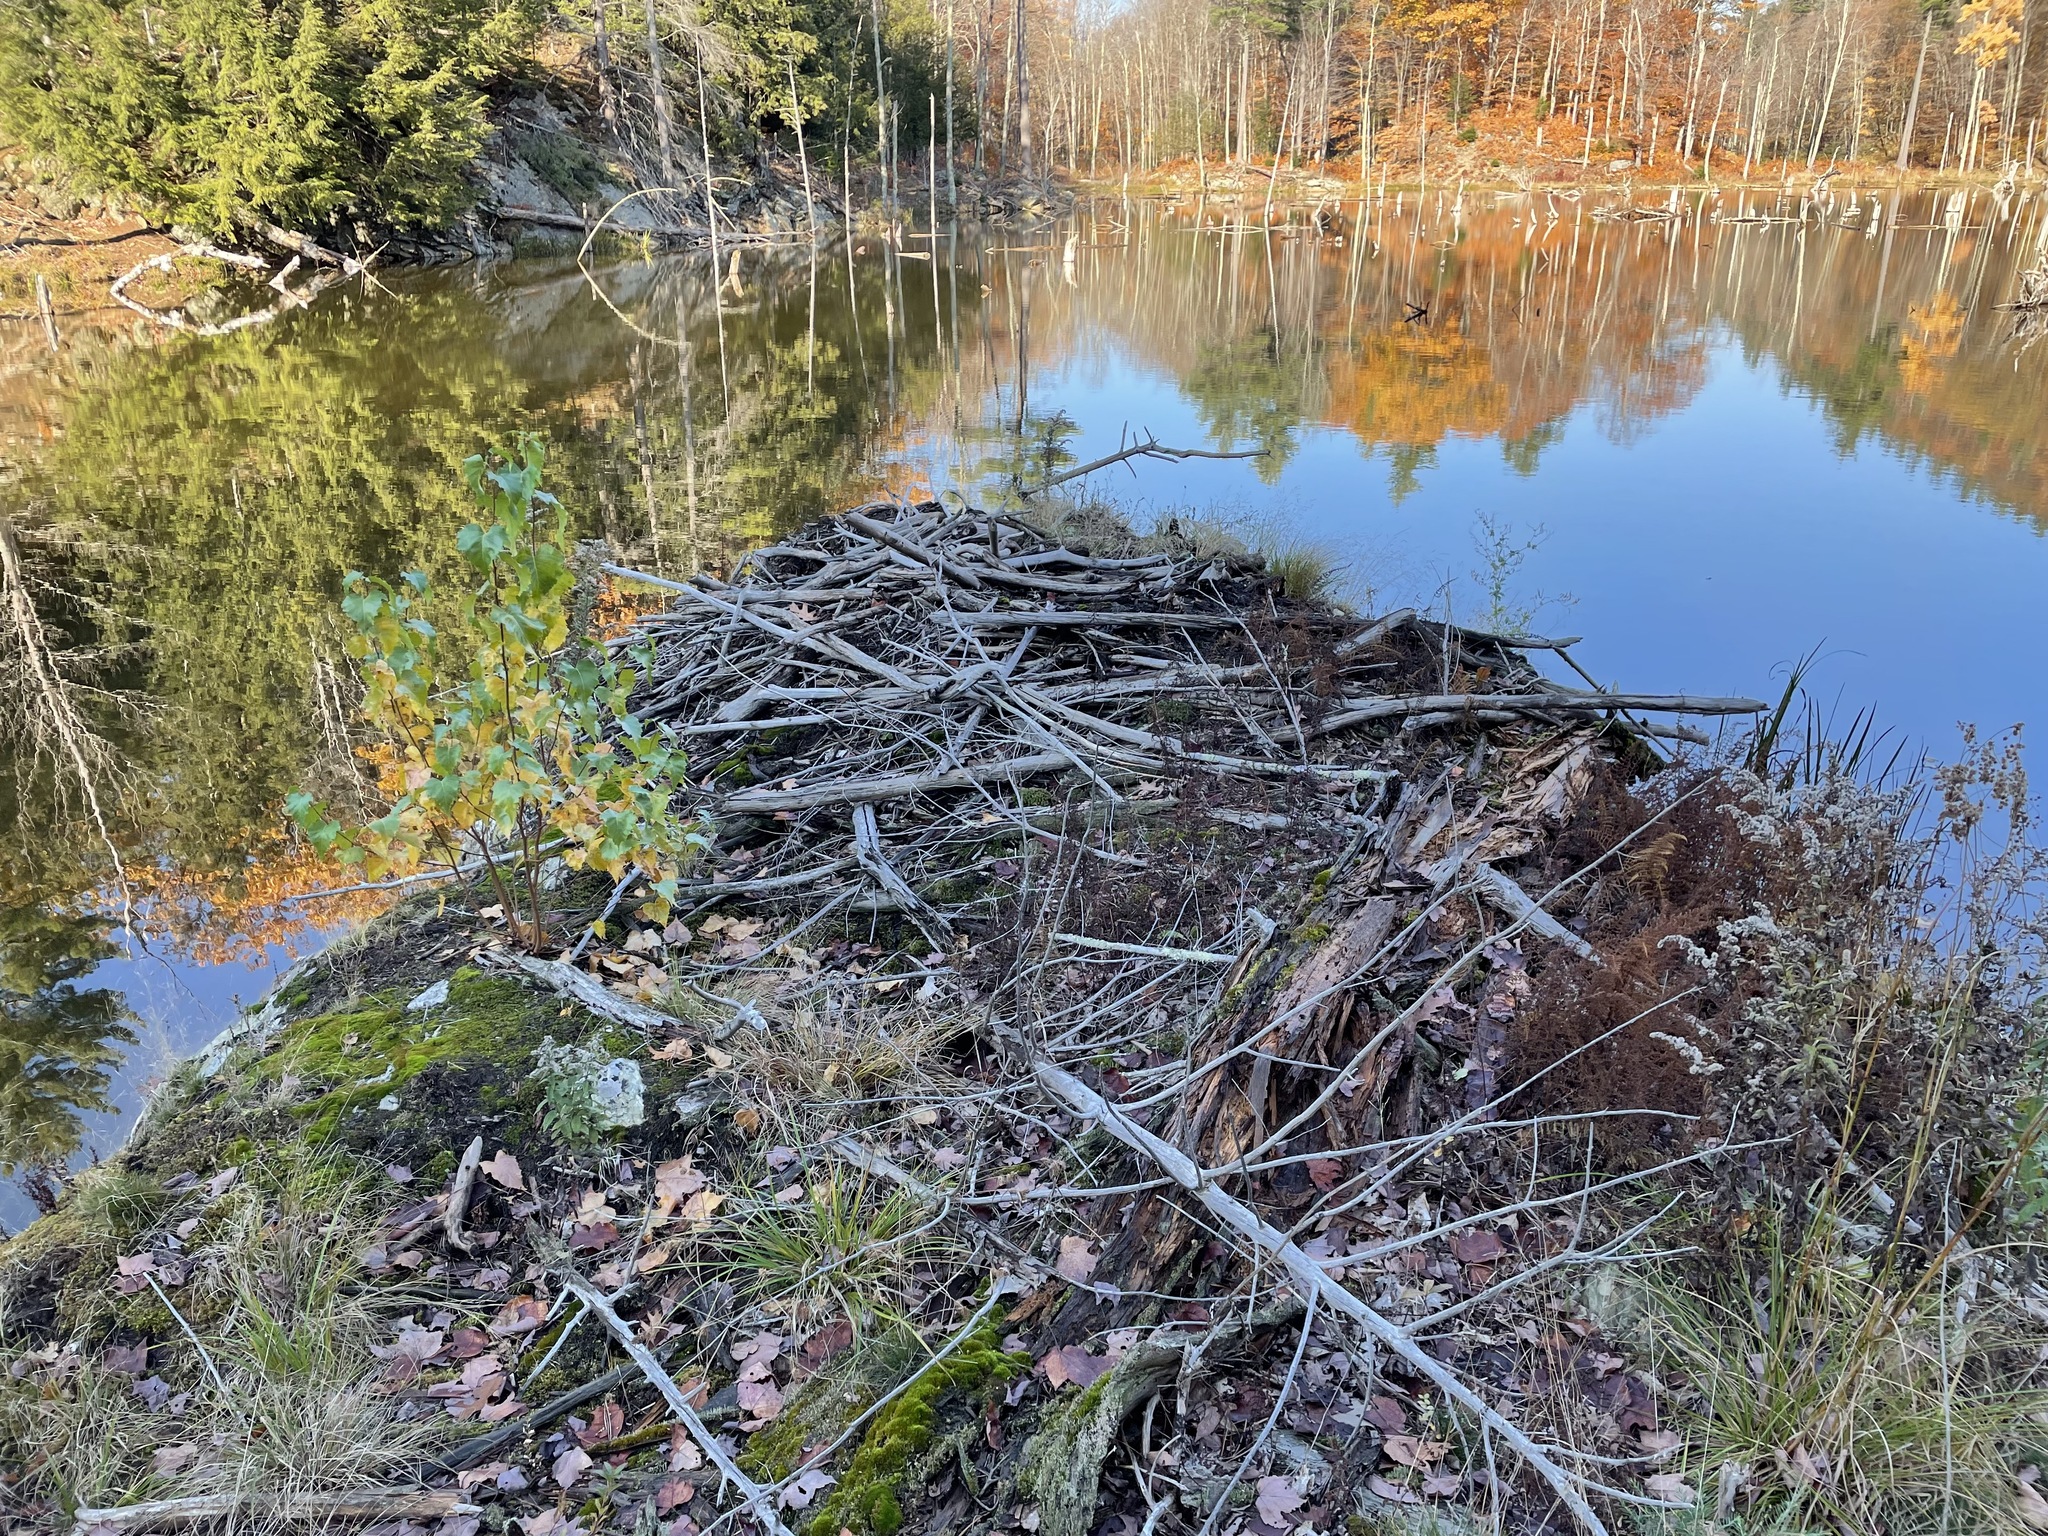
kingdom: Animalia
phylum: Chordata
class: Mammalia
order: Rodentia
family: Castoridae
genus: Castor
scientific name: Castor canadensis
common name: American beaver
